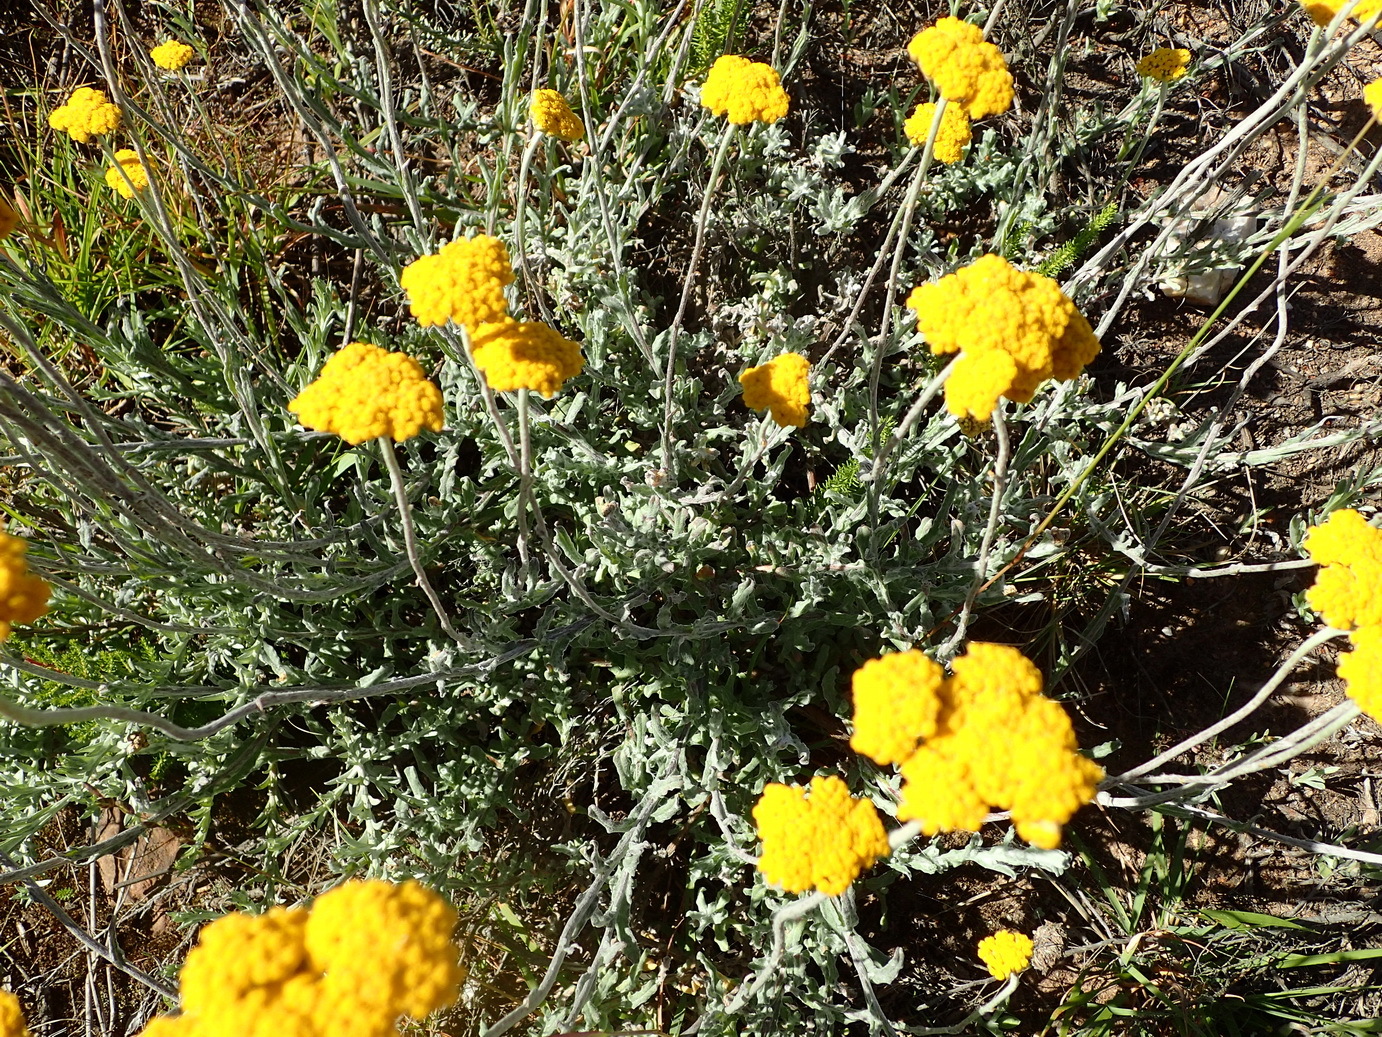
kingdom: Plantae
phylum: Tracheophyta
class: Magnoliopsida
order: Asterales
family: Asteraceae
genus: Helichrysum
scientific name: Helichrysum odoratissimum
